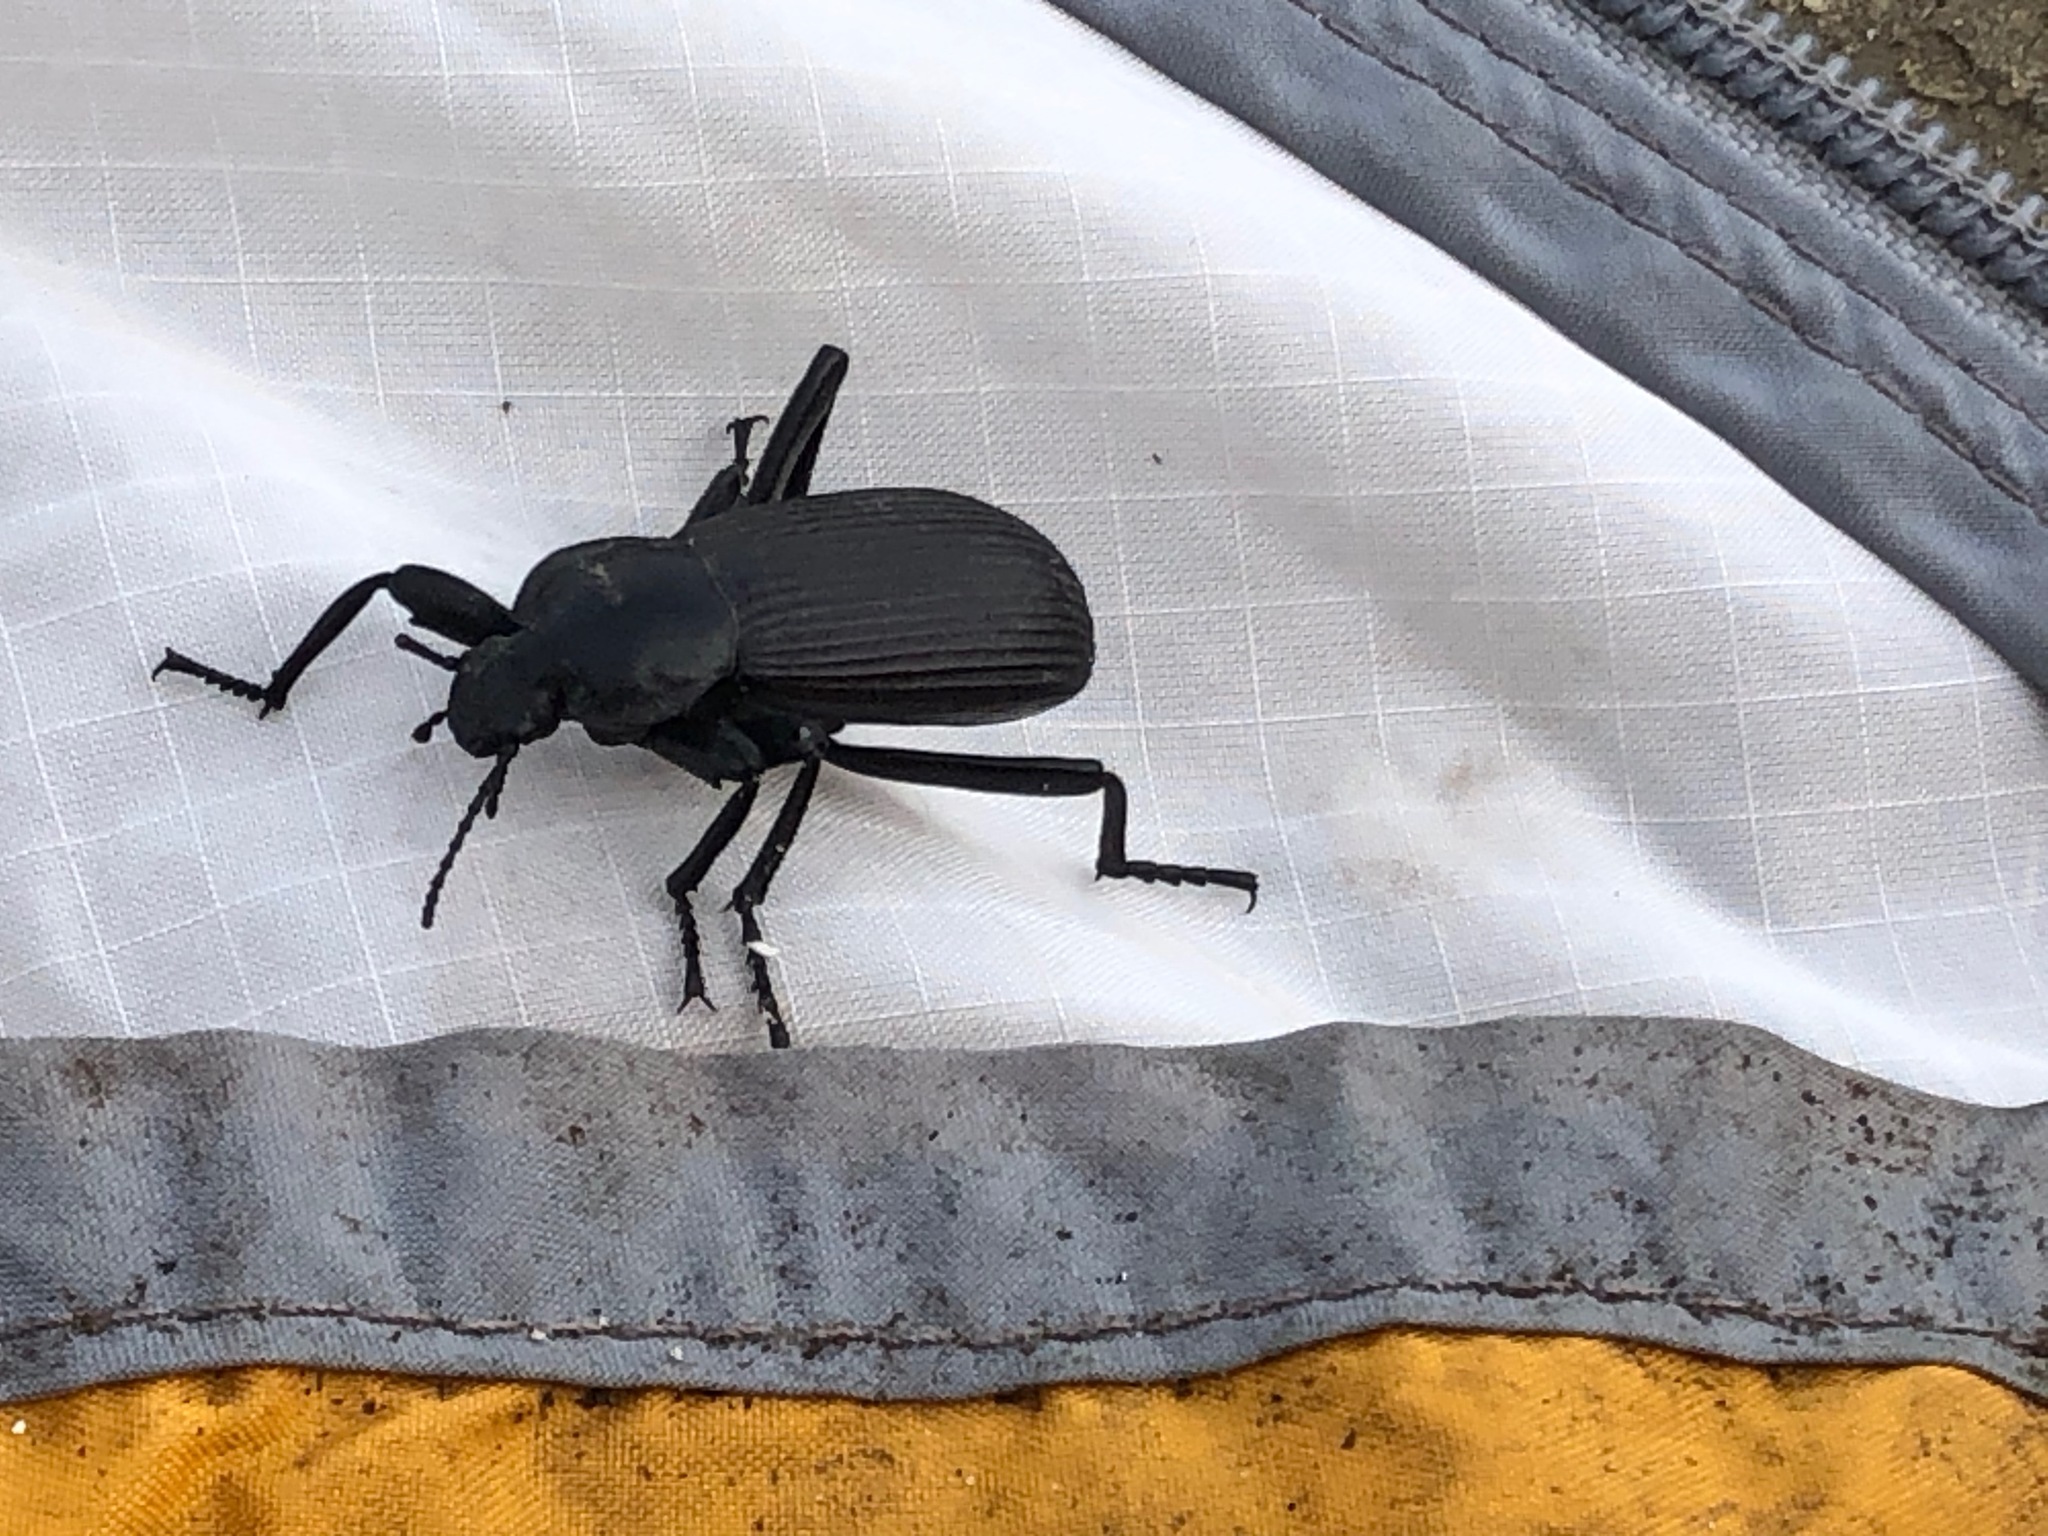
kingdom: Animalia
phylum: Arthropoda
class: Insecta
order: Coleoptera
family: Tenebrionidae
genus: Eleodes
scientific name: Eleodes obscura
